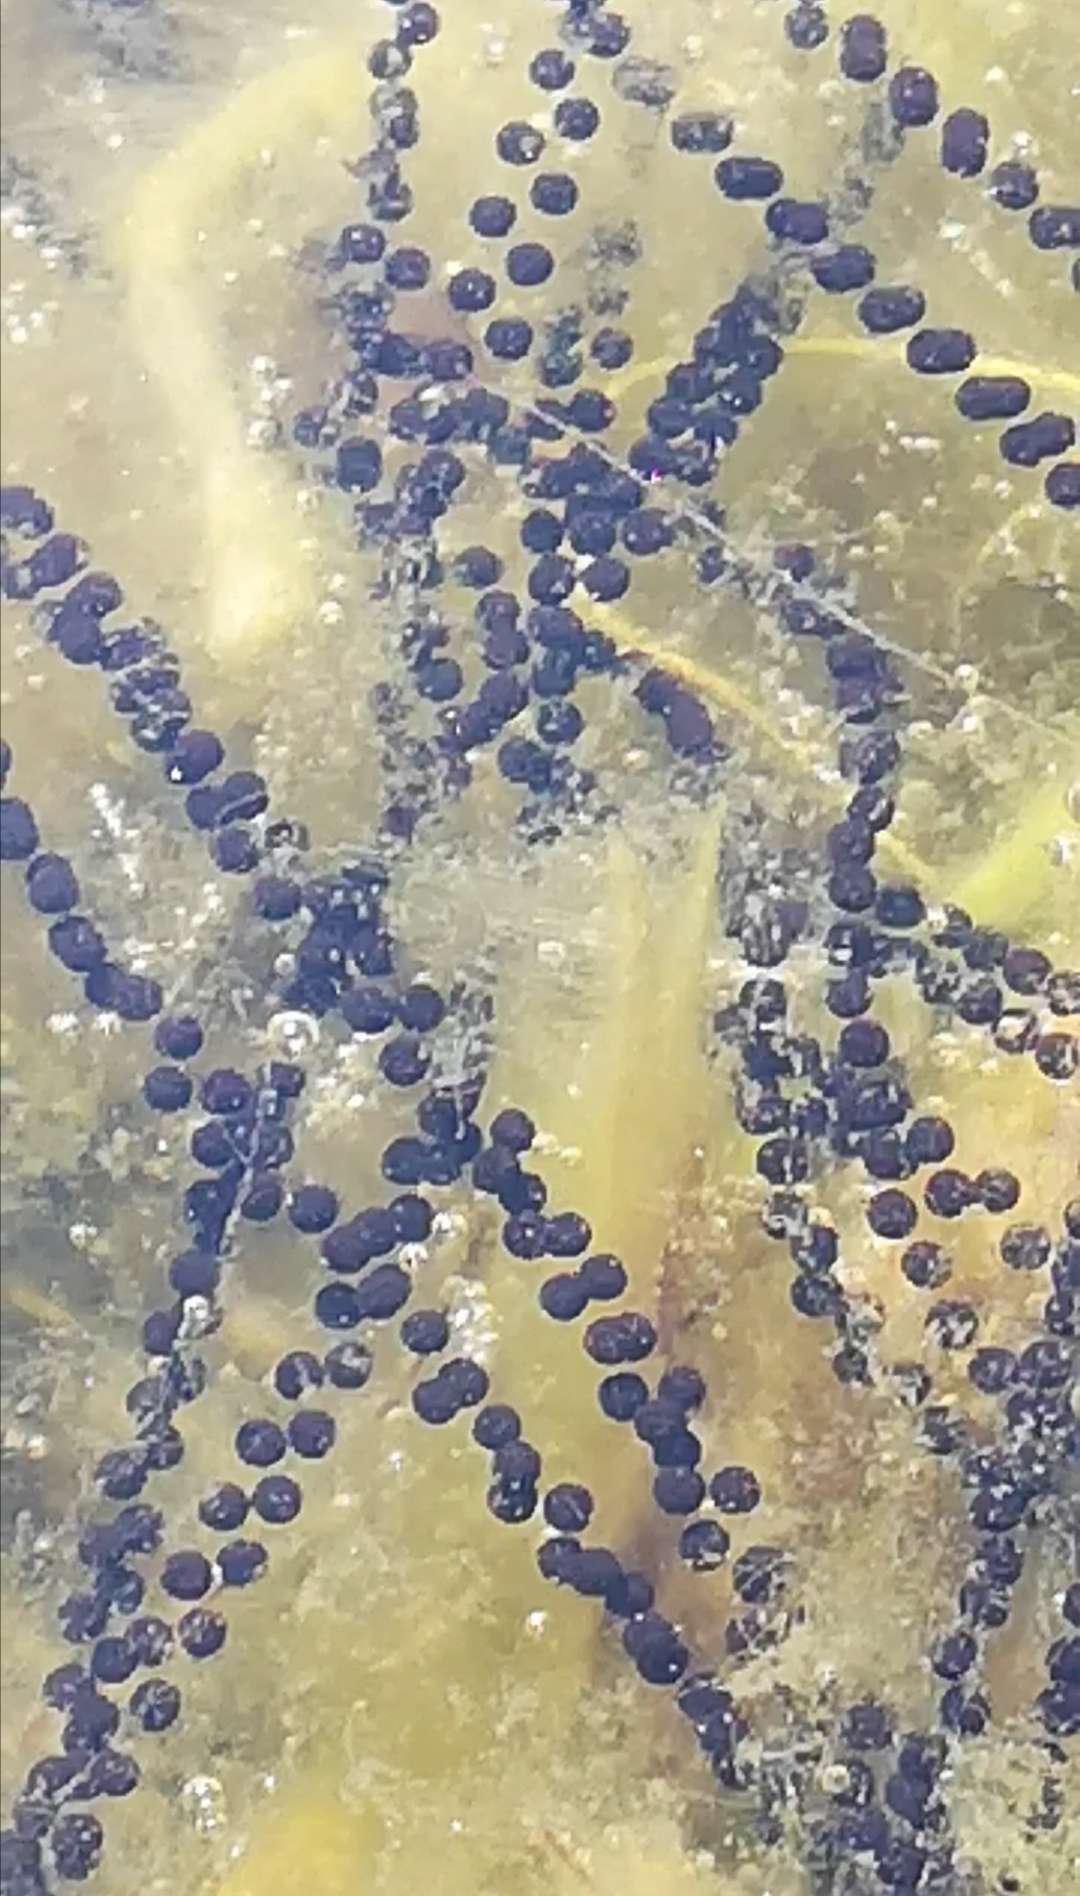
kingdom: Animalia
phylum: Chordata
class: Amphibia
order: Anura
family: Bufonidae
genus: Bufo
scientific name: Bufo bufo
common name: Common toad
